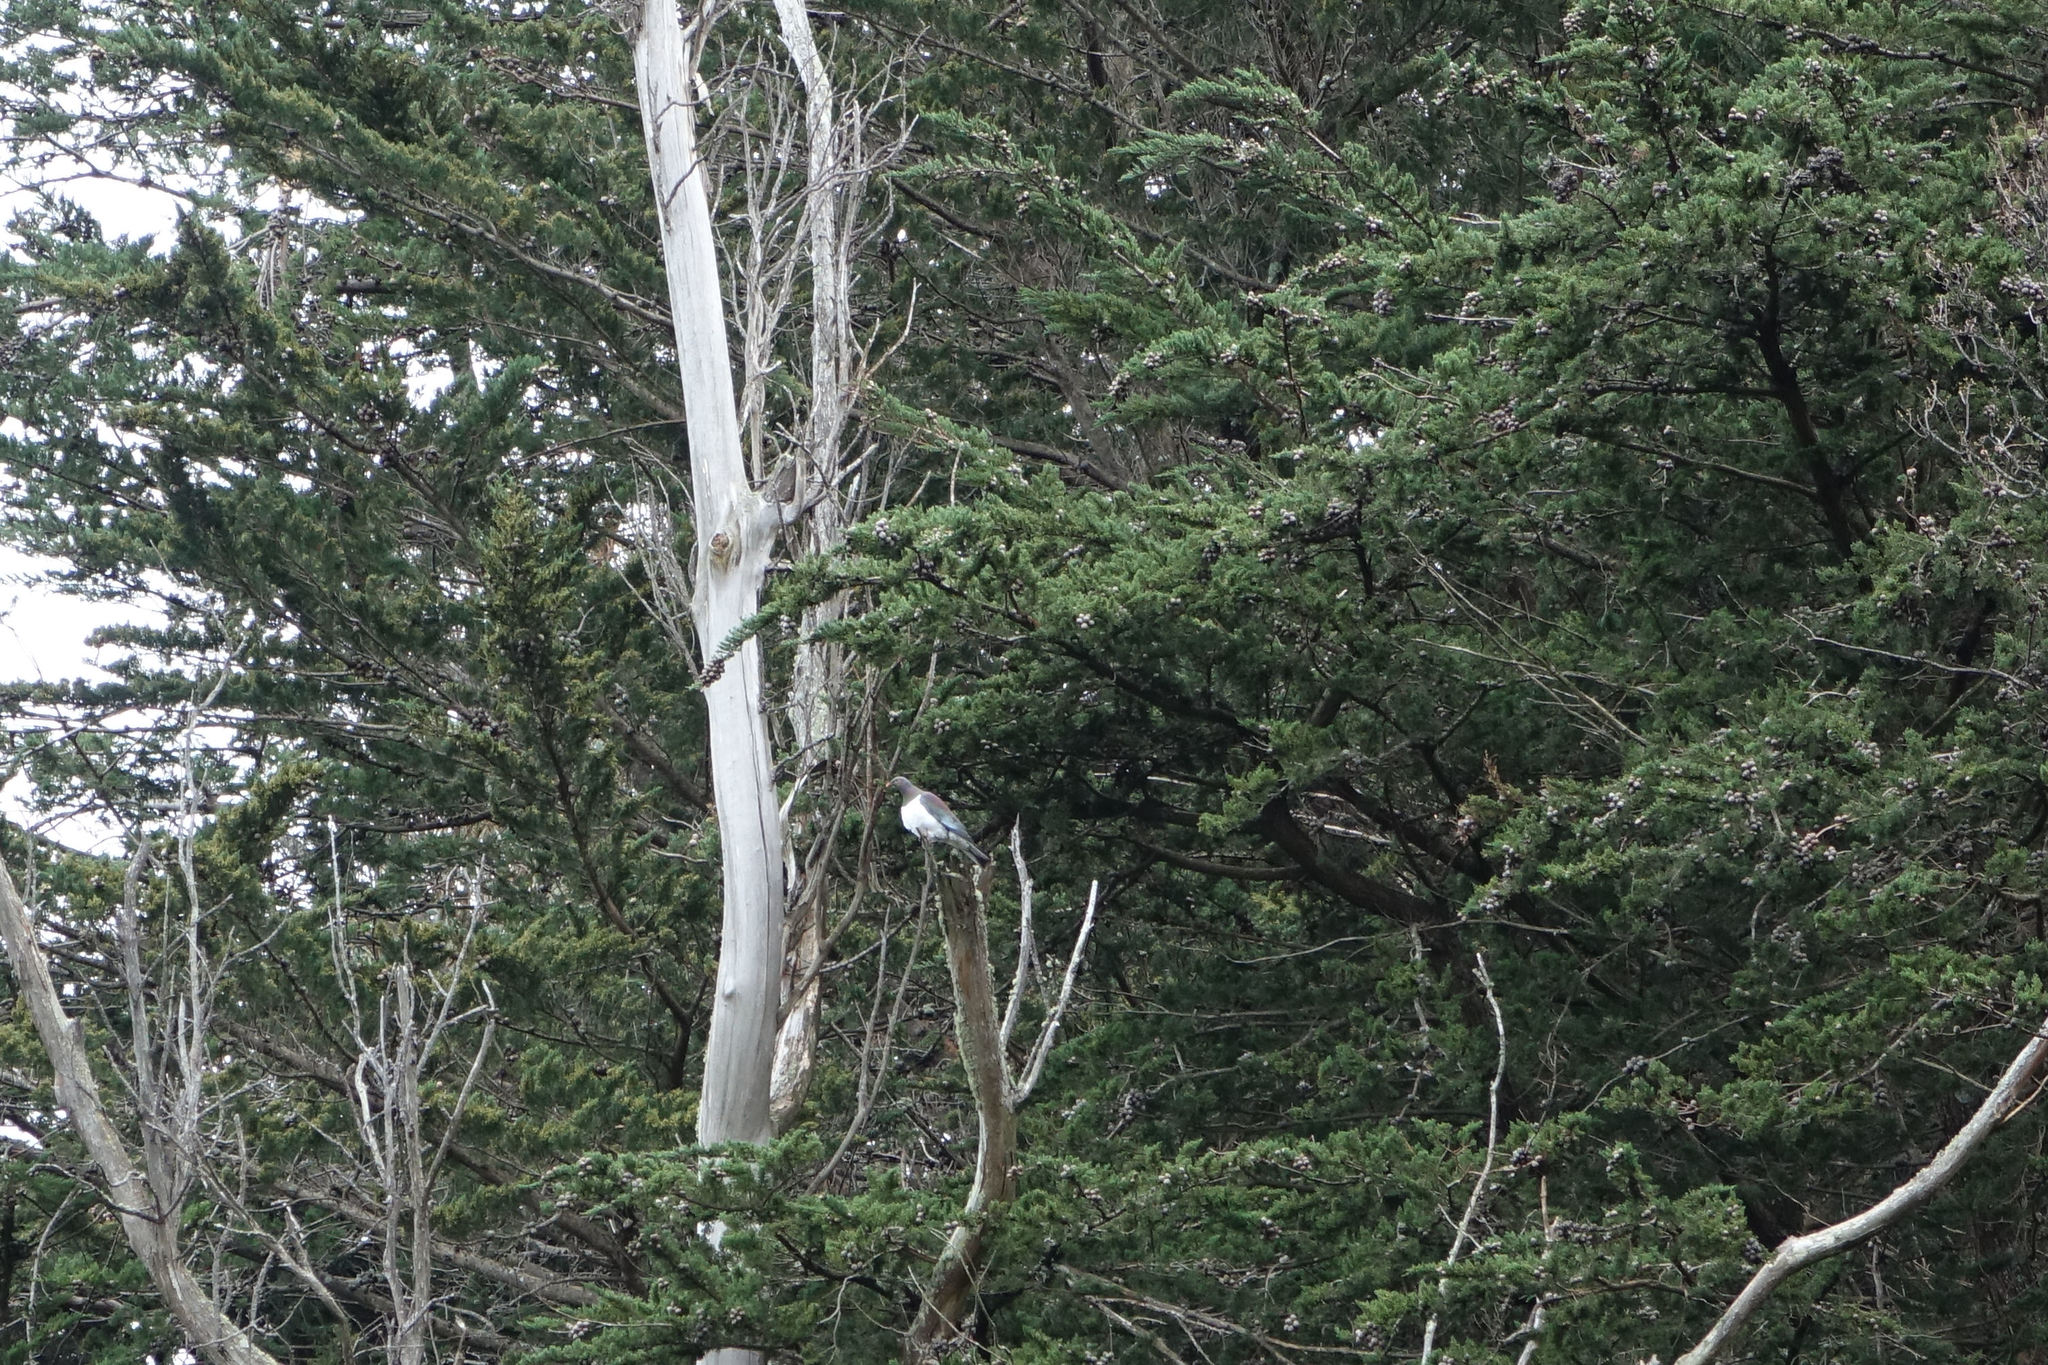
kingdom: Animalia
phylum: Chordata
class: Aves
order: Columbiformes
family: Columbidae
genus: Hemiphaga
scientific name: Hemiphaga novaeseelandiae
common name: New zealand pigeon
